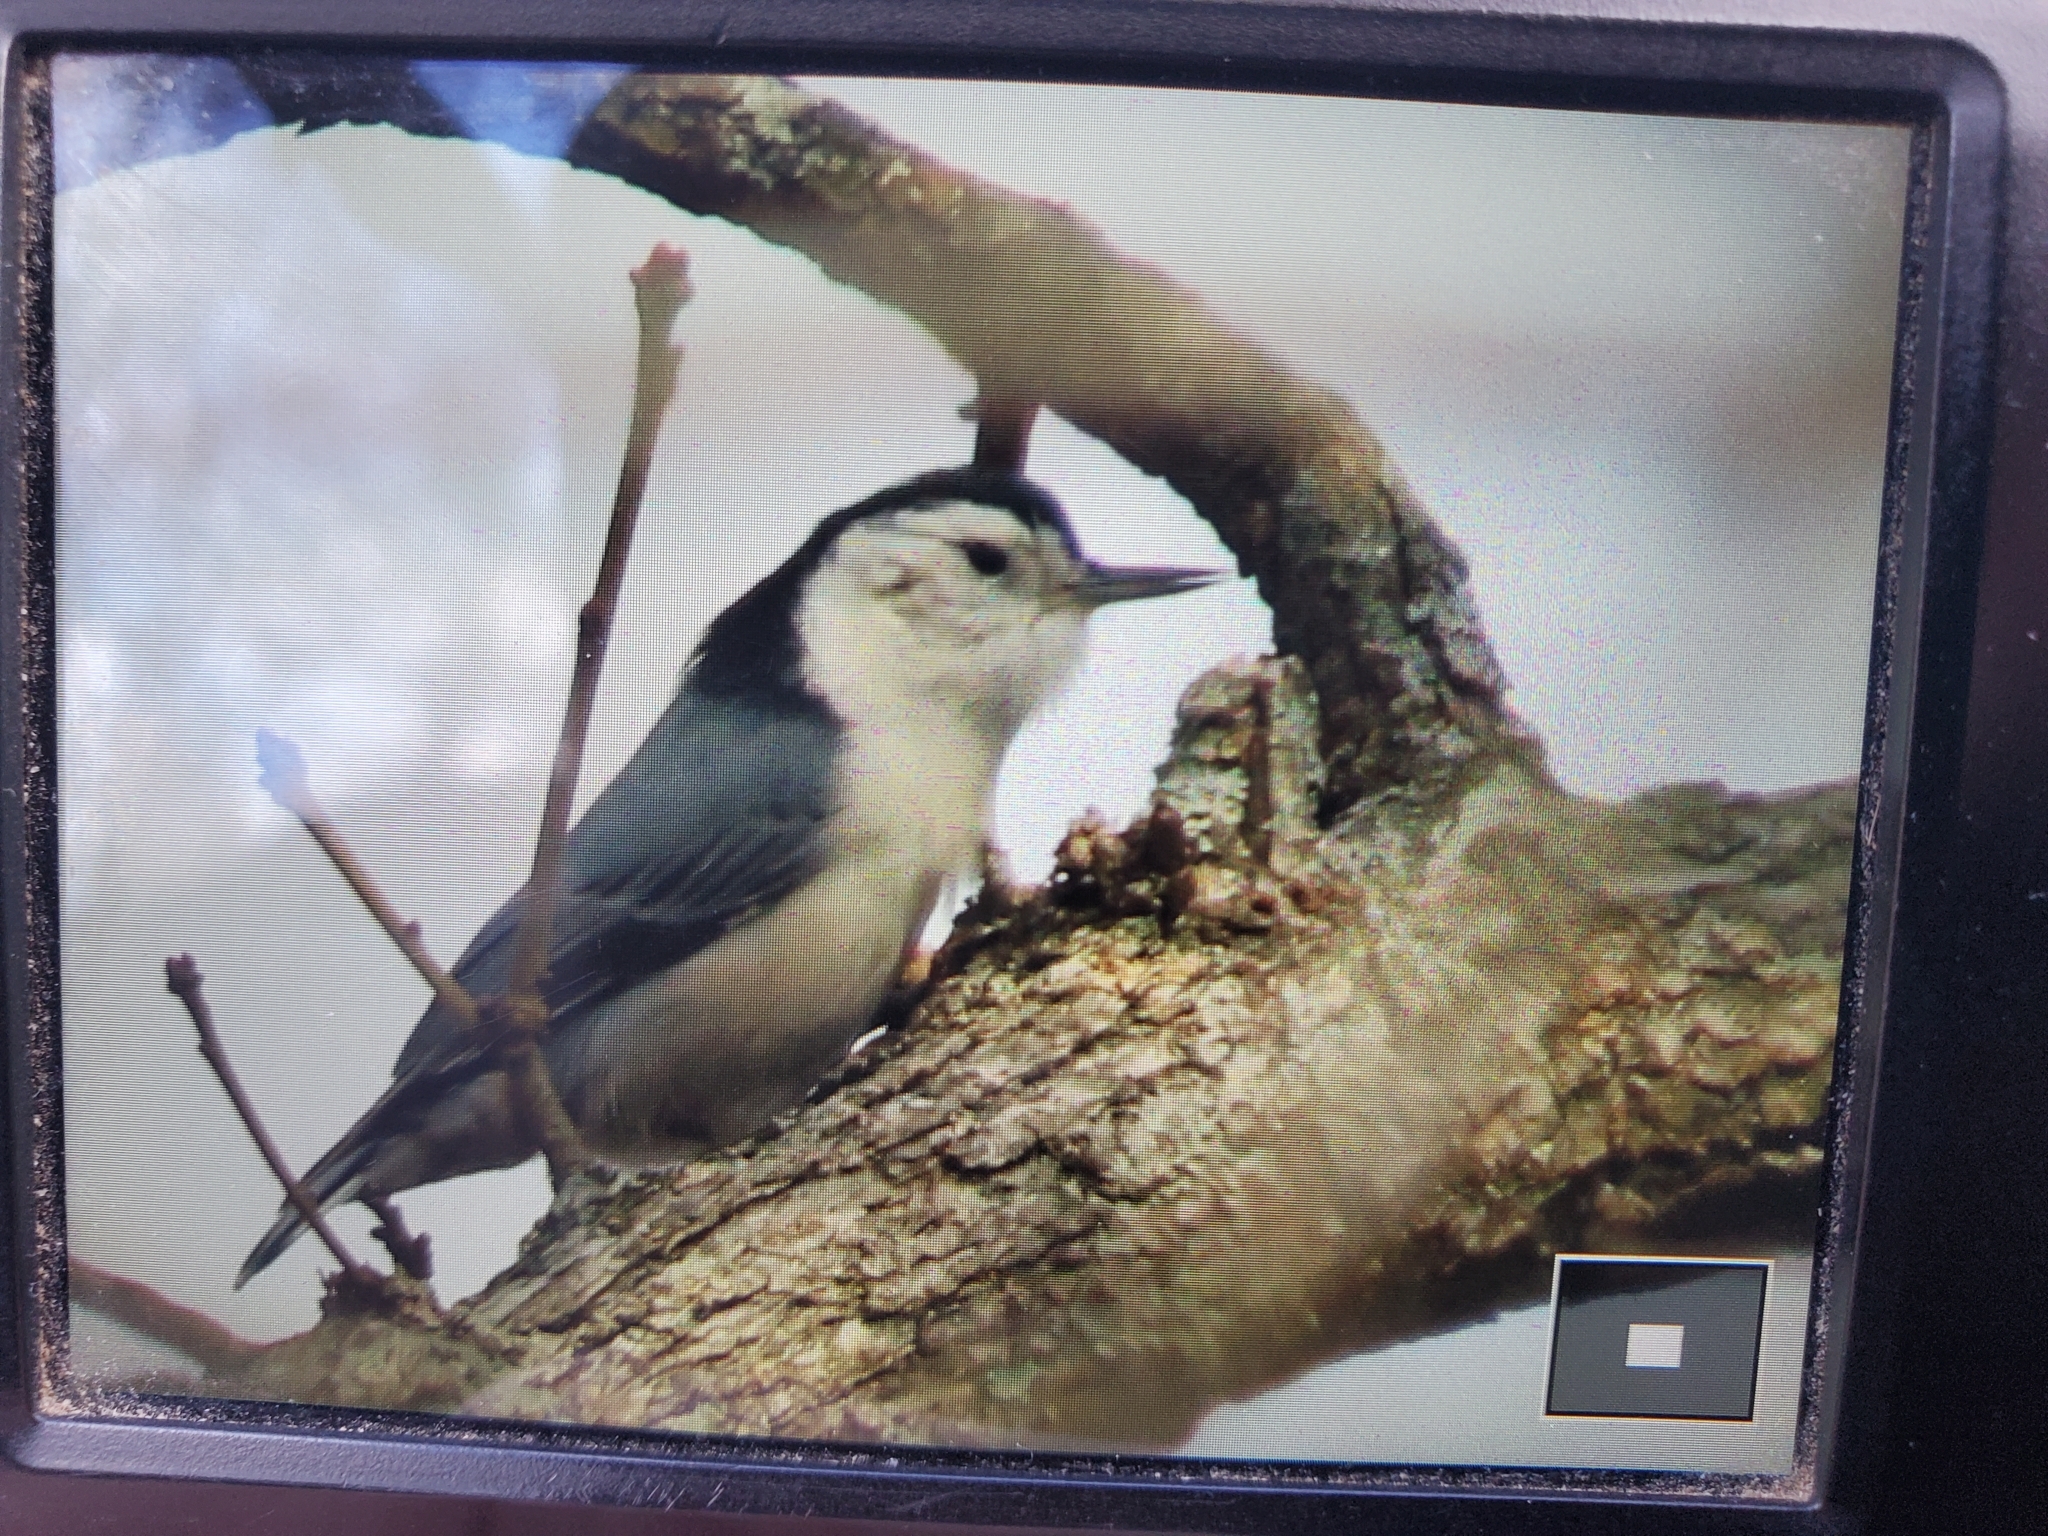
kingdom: Animalia
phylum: Chordata
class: Aves
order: Passeriformes
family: Sittidae
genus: Sitta
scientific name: Sitta carolinensis
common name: White-breasted nuthatch
